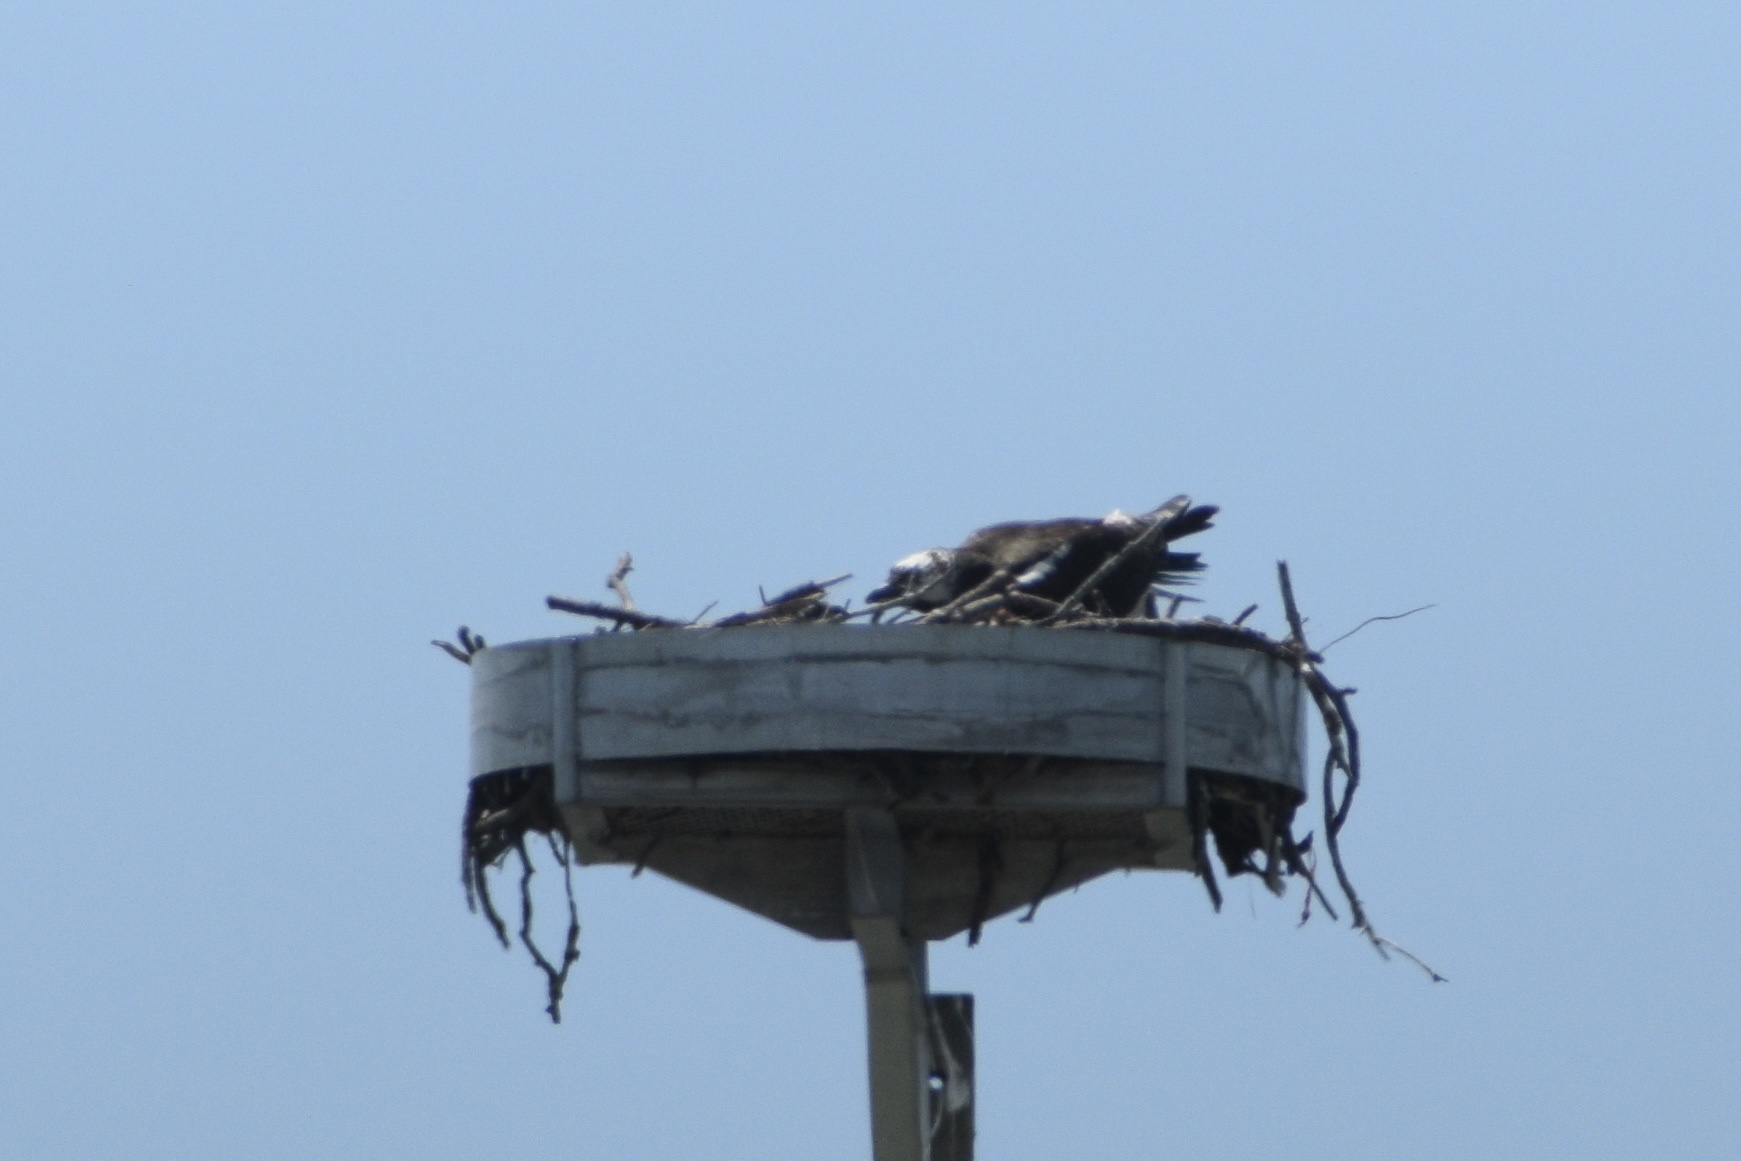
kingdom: Animalia
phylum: Chordata
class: Aves
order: Accipitriformes
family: Pandionidae
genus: Pandion
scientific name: Pandion haliaetus
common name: Osprey
